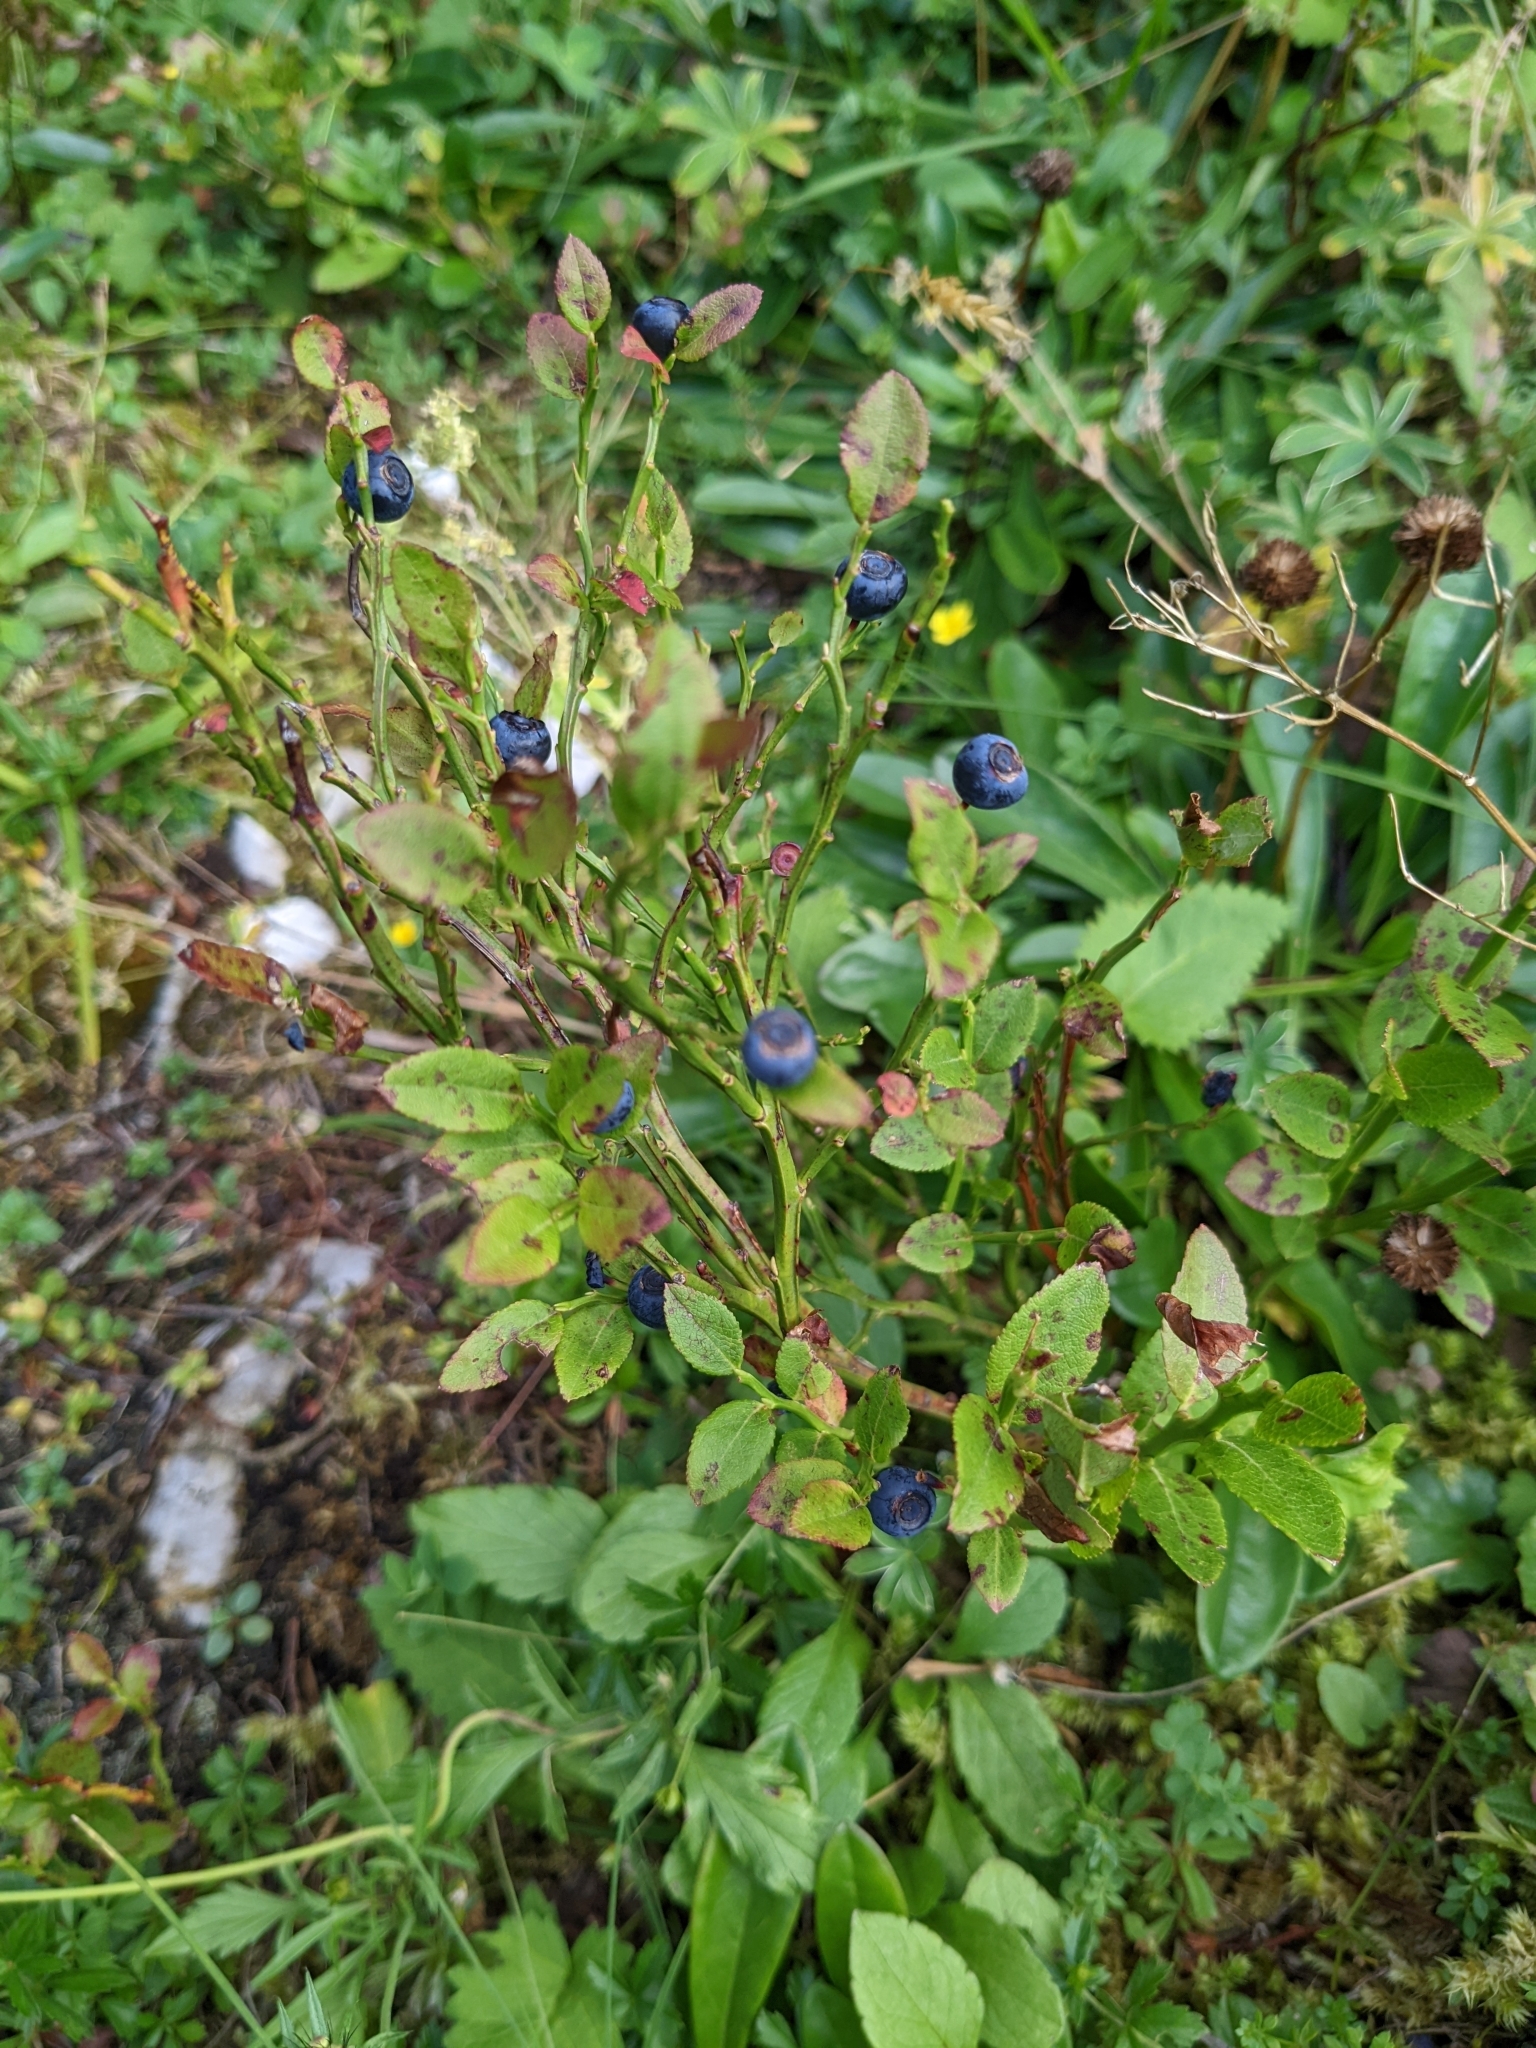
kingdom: Plantae
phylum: Tracheophyta
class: Magnoliopsida
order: Ericales
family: Ericaceae
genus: Vaccinium
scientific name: Vaccinium myrtillus
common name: Bilberry
